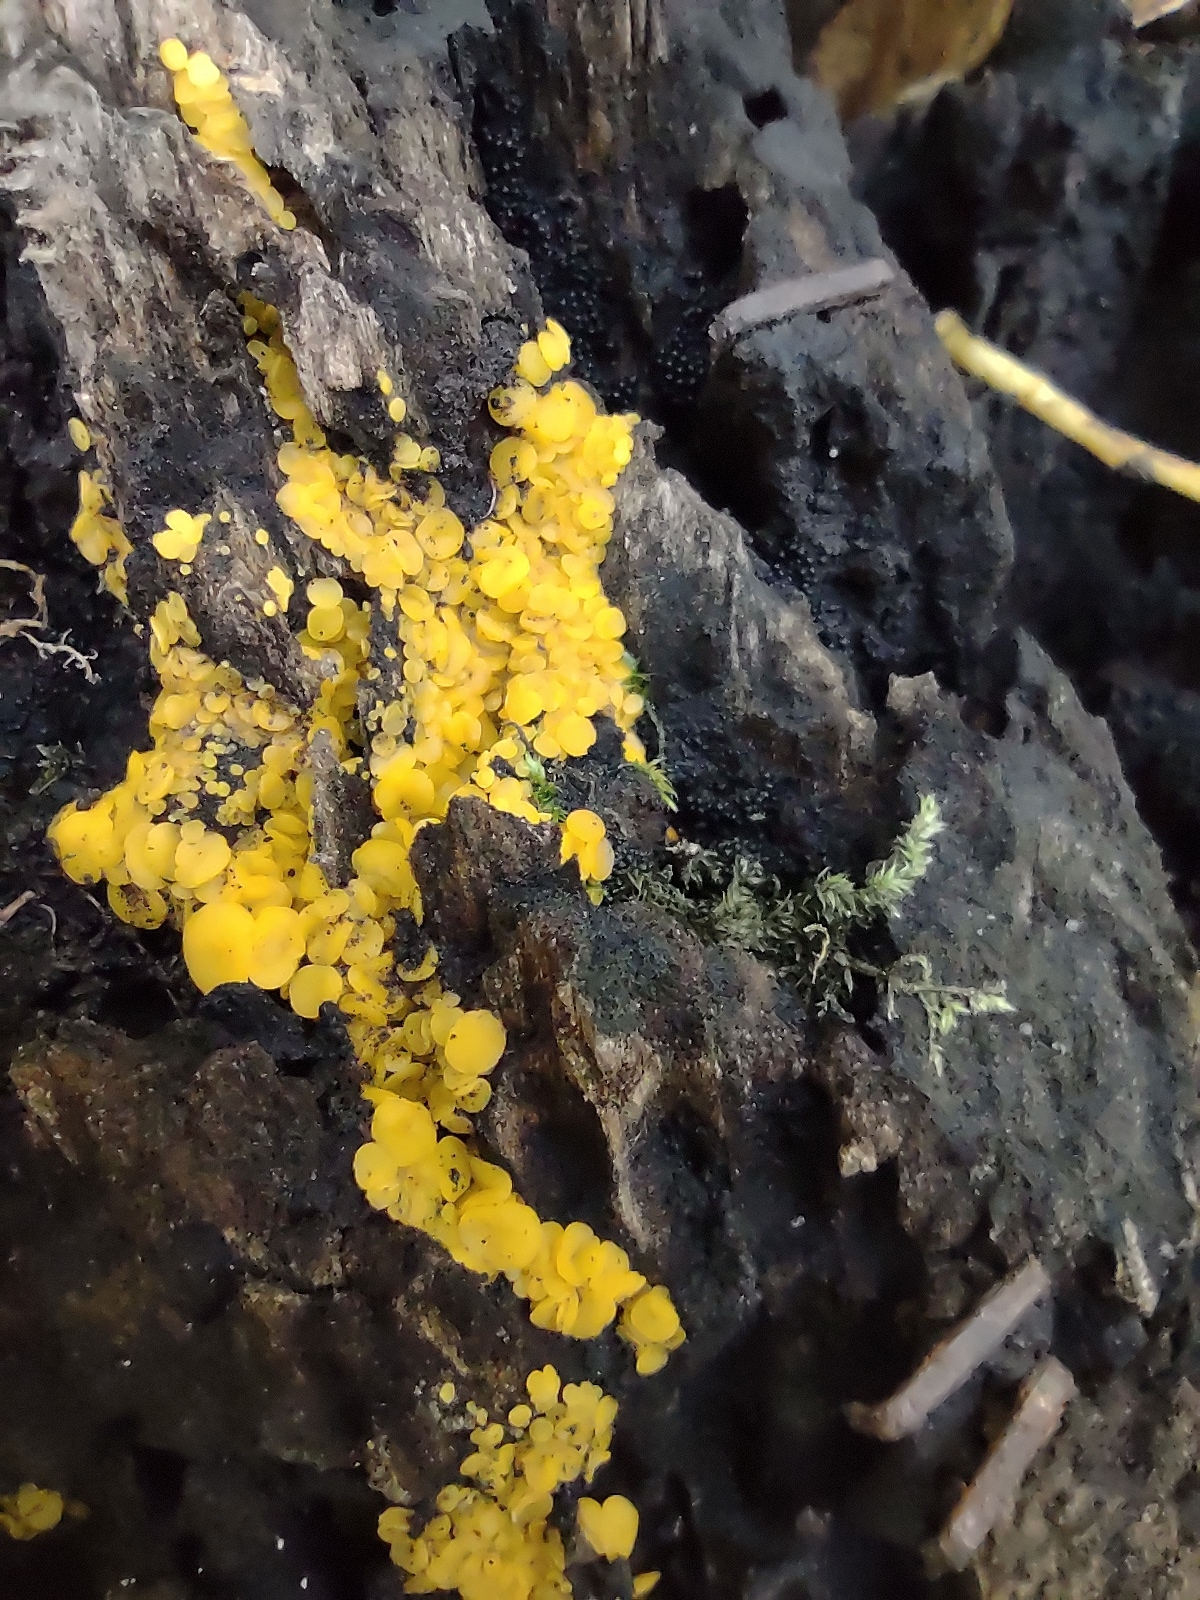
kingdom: Fungi
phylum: Ascomycota
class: Leotiomycetes
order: Helotiales
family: Pezizellaceae
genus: Calycina
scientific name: Calycina citrina
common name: Yellow fairy cups
